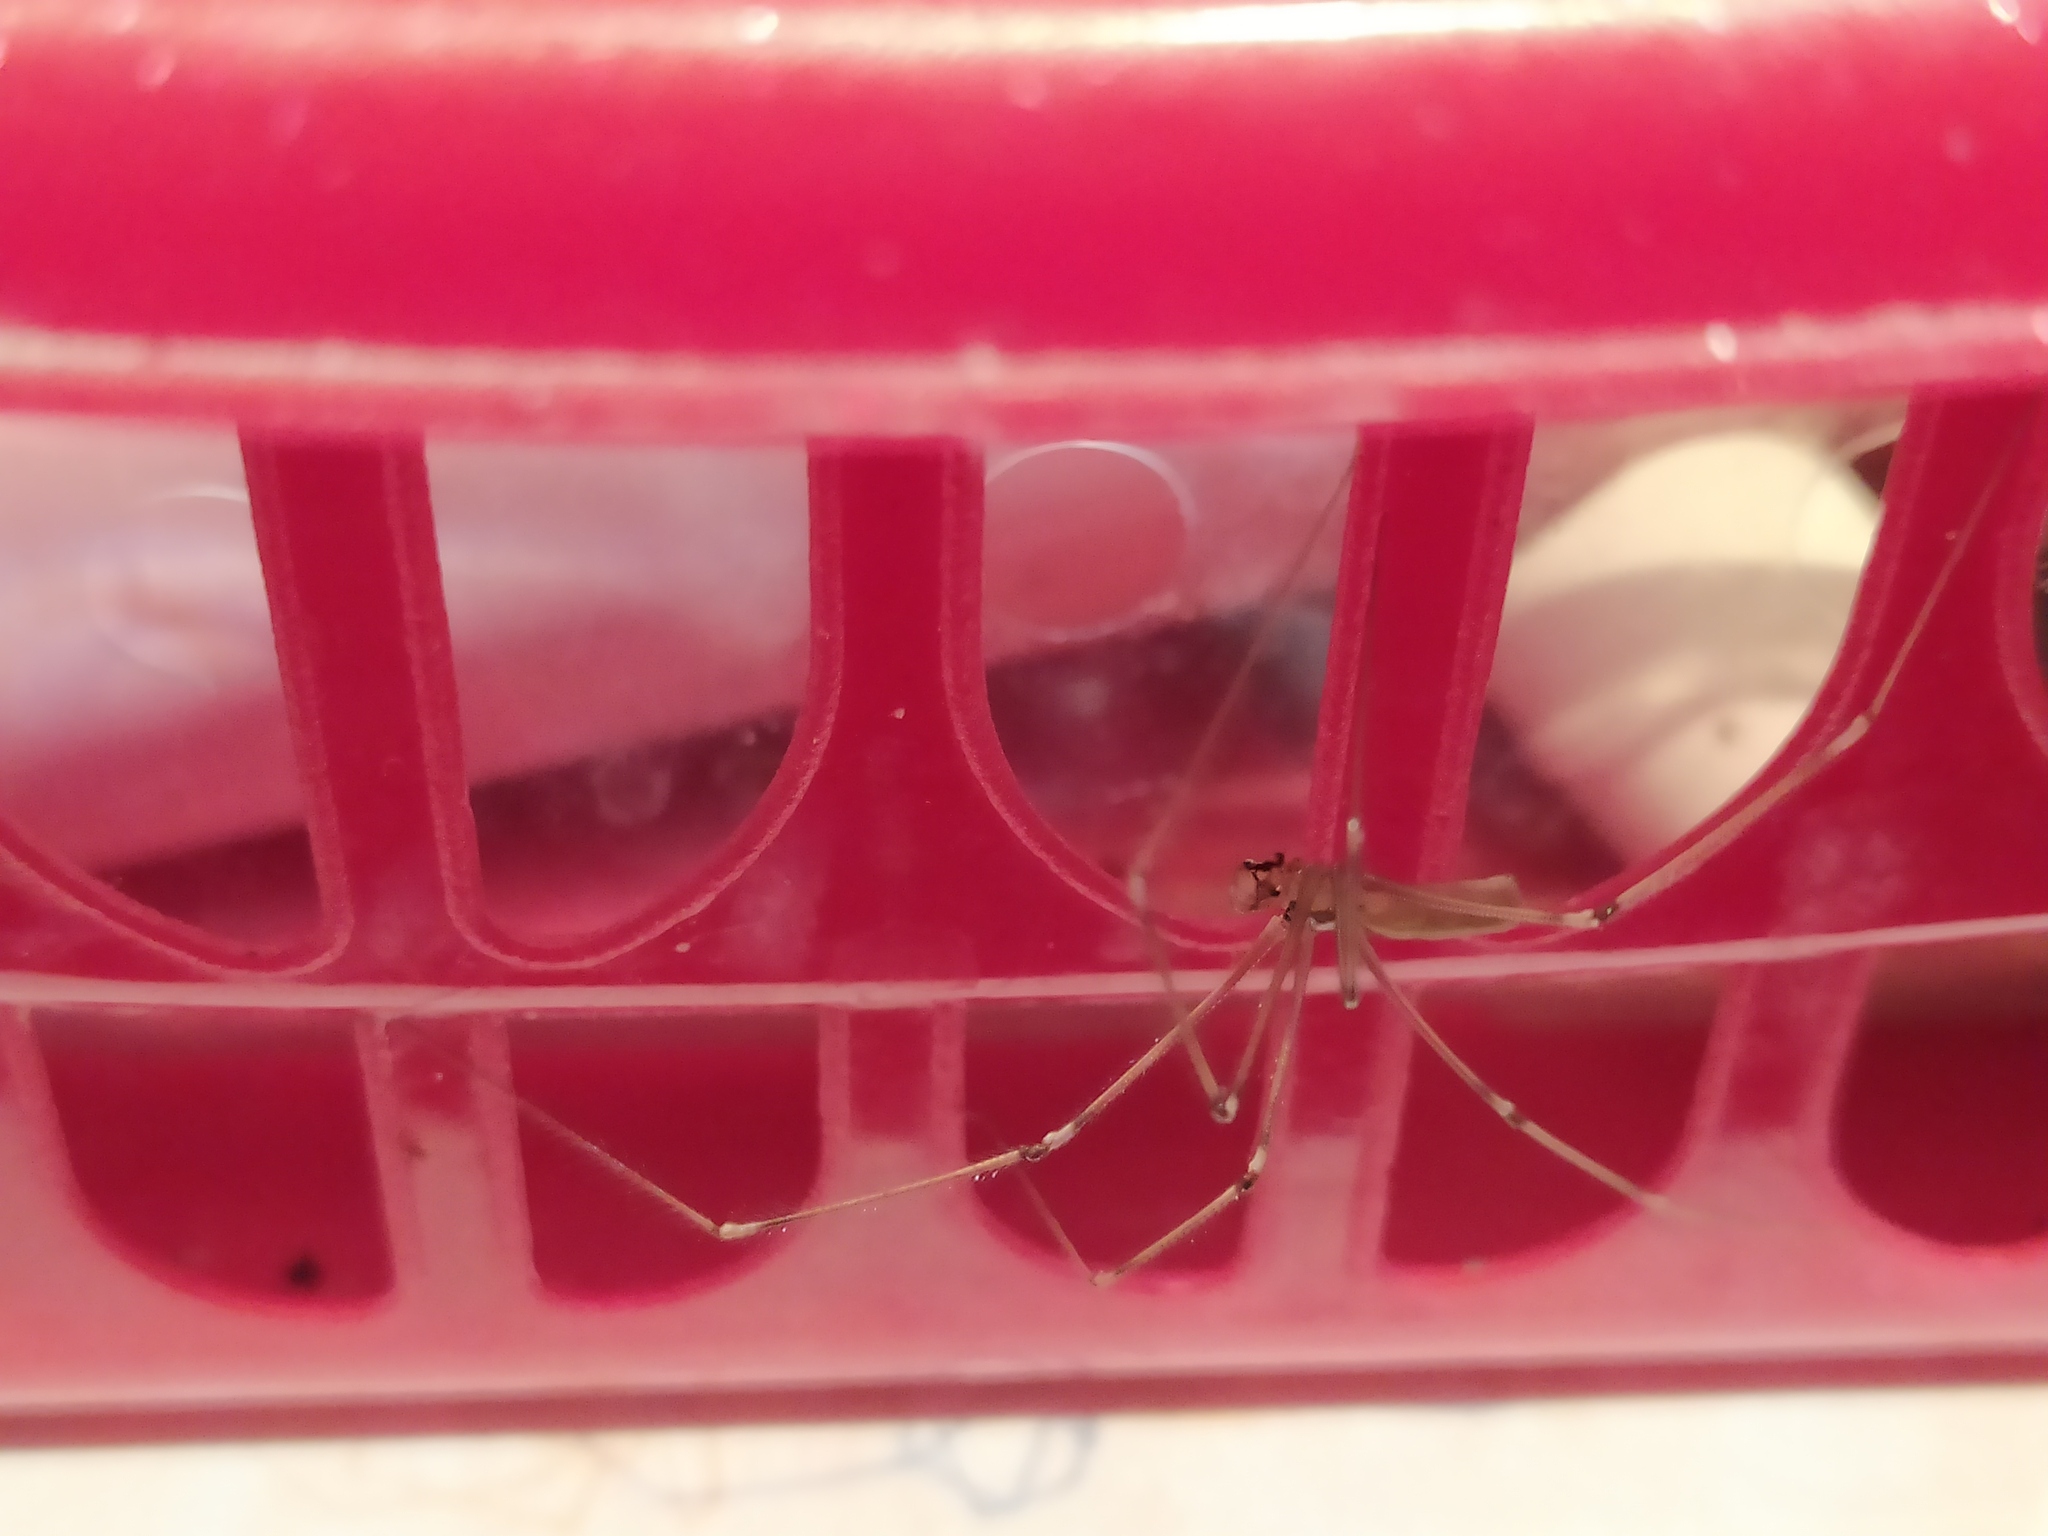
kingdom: Animalia
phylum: Arthropoda
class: Arachnida
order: Araneae
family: Pholcidae
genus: Pholcus
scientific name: Pholcus phalangioides
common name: Longbodied cellar spider
